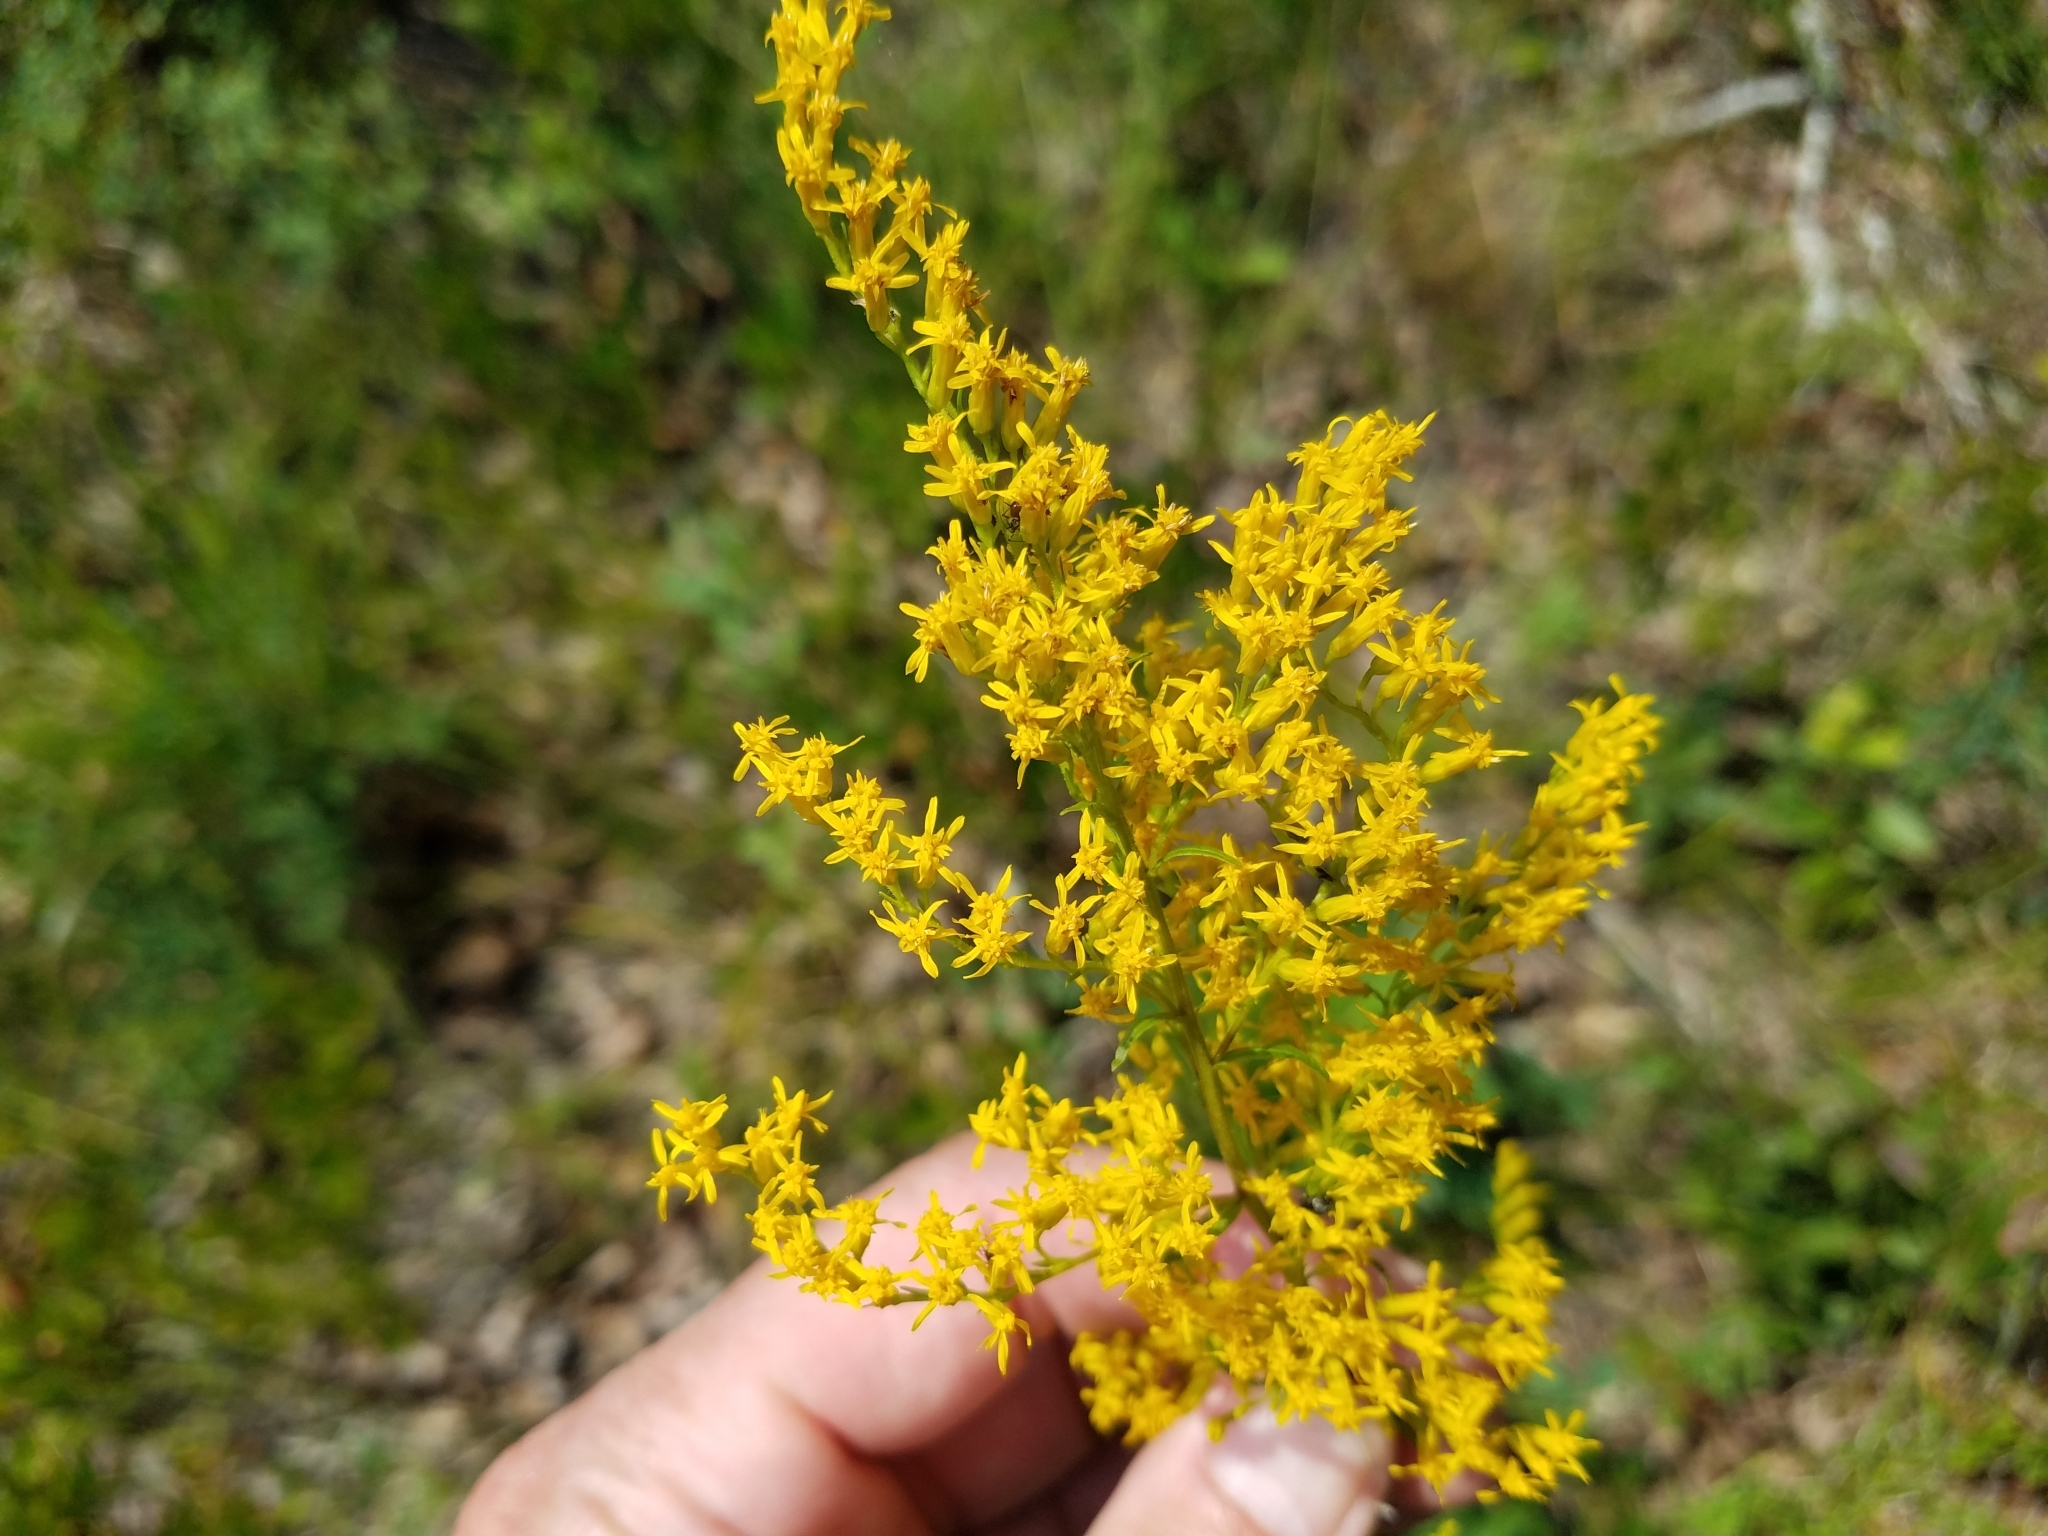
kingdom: Plantae
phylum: Tracheophyta
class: Magnoliopsida
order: Asterales
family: Asteraceae
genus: Solidago
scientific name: Solidago odora
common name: Anise-scented goldenrod
